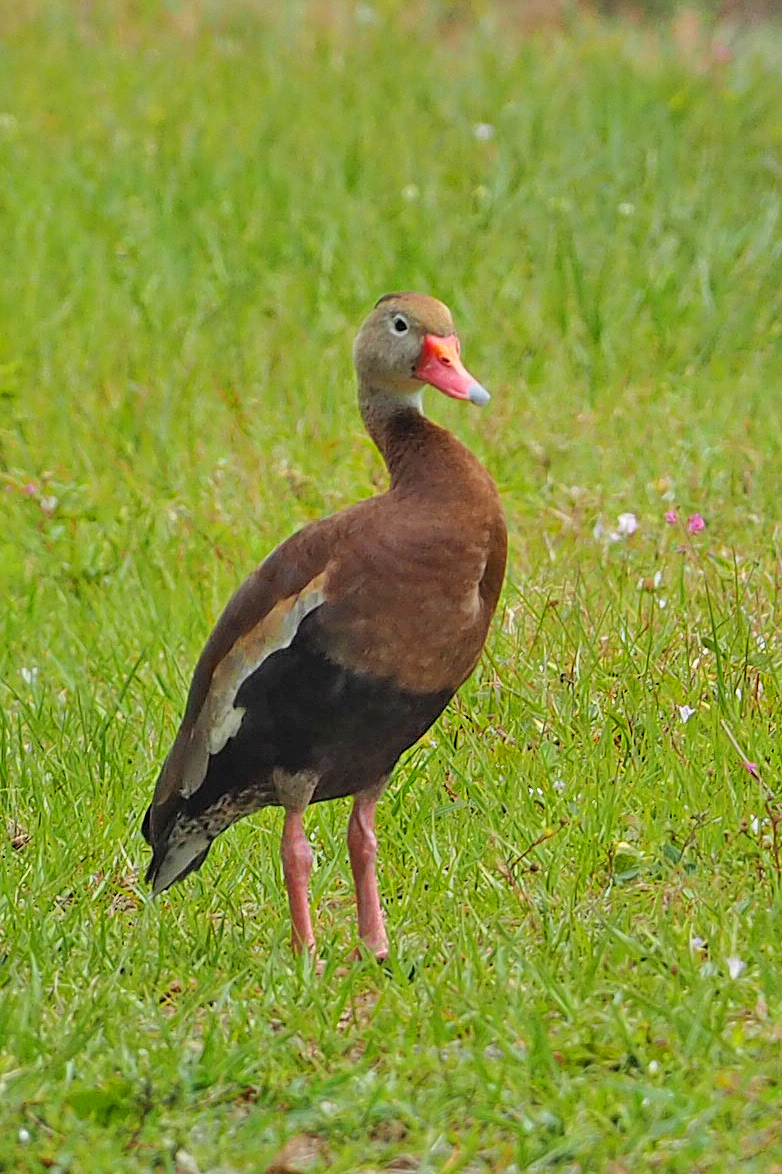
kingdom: Animalia
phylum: Chordata
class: Aves
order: Anseriformes
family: Anatidae
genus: Dendrocygna
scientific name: Dendrocygna autumnalis
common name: Black-bellied whistling duck
